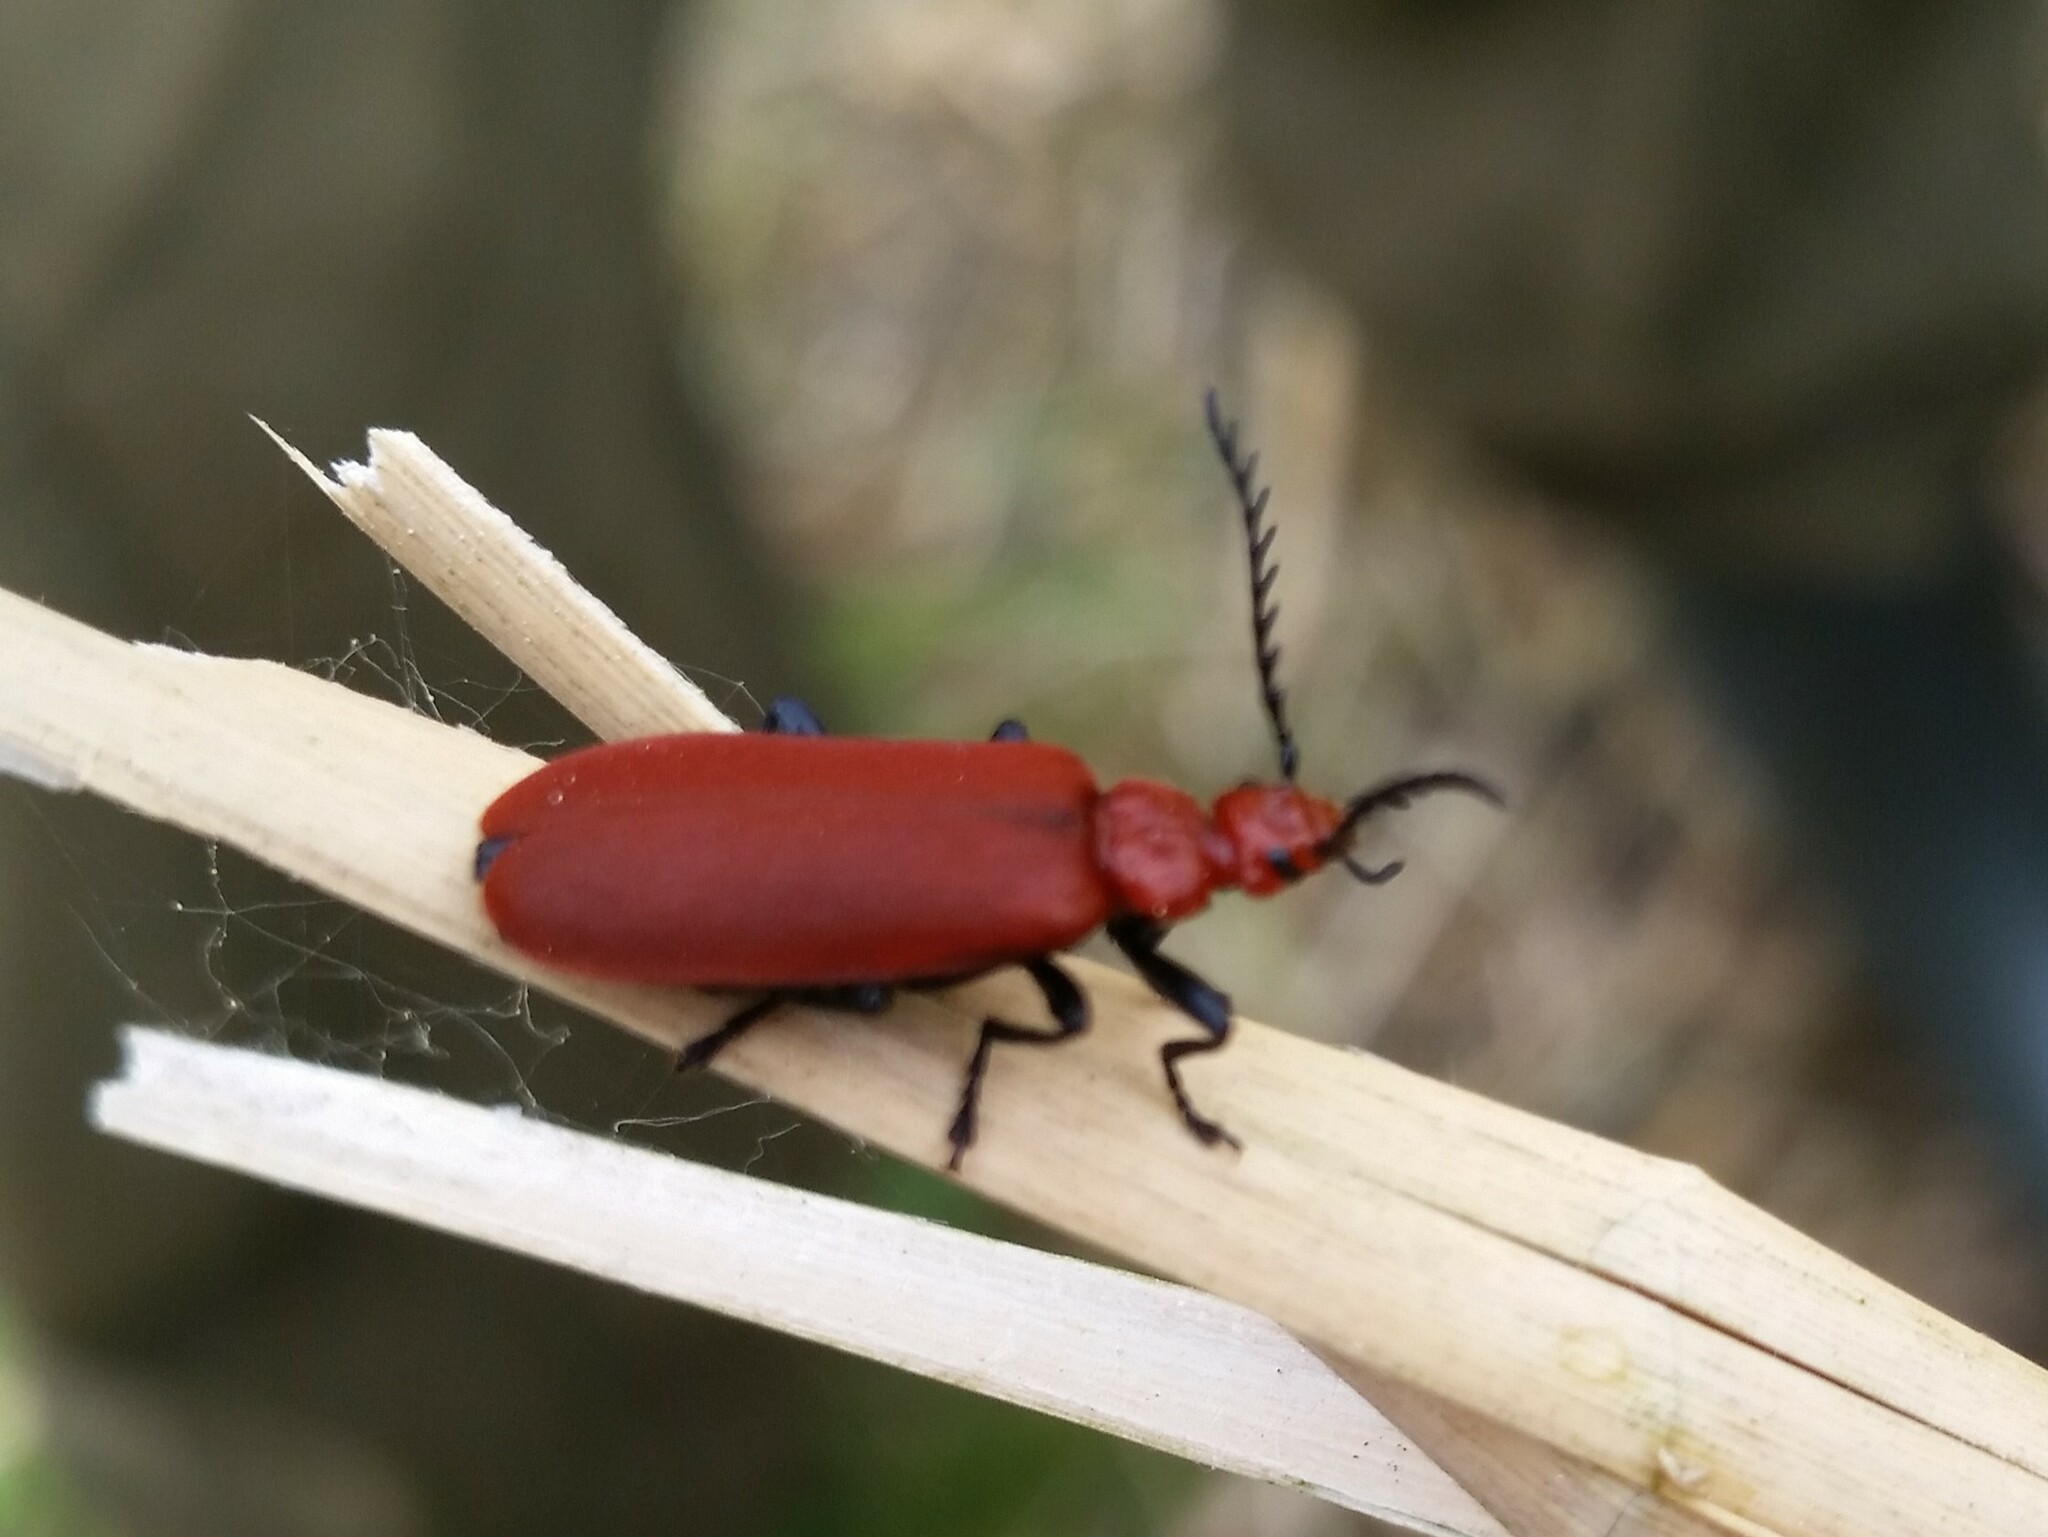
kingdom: Animalia
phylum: Arthropoda
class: Insecta
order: Coleoptera
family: Pyrochroidae
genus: Pyrochroa
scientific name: Pyrochroa serraticornis
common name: Red-headed cardinal beetle
